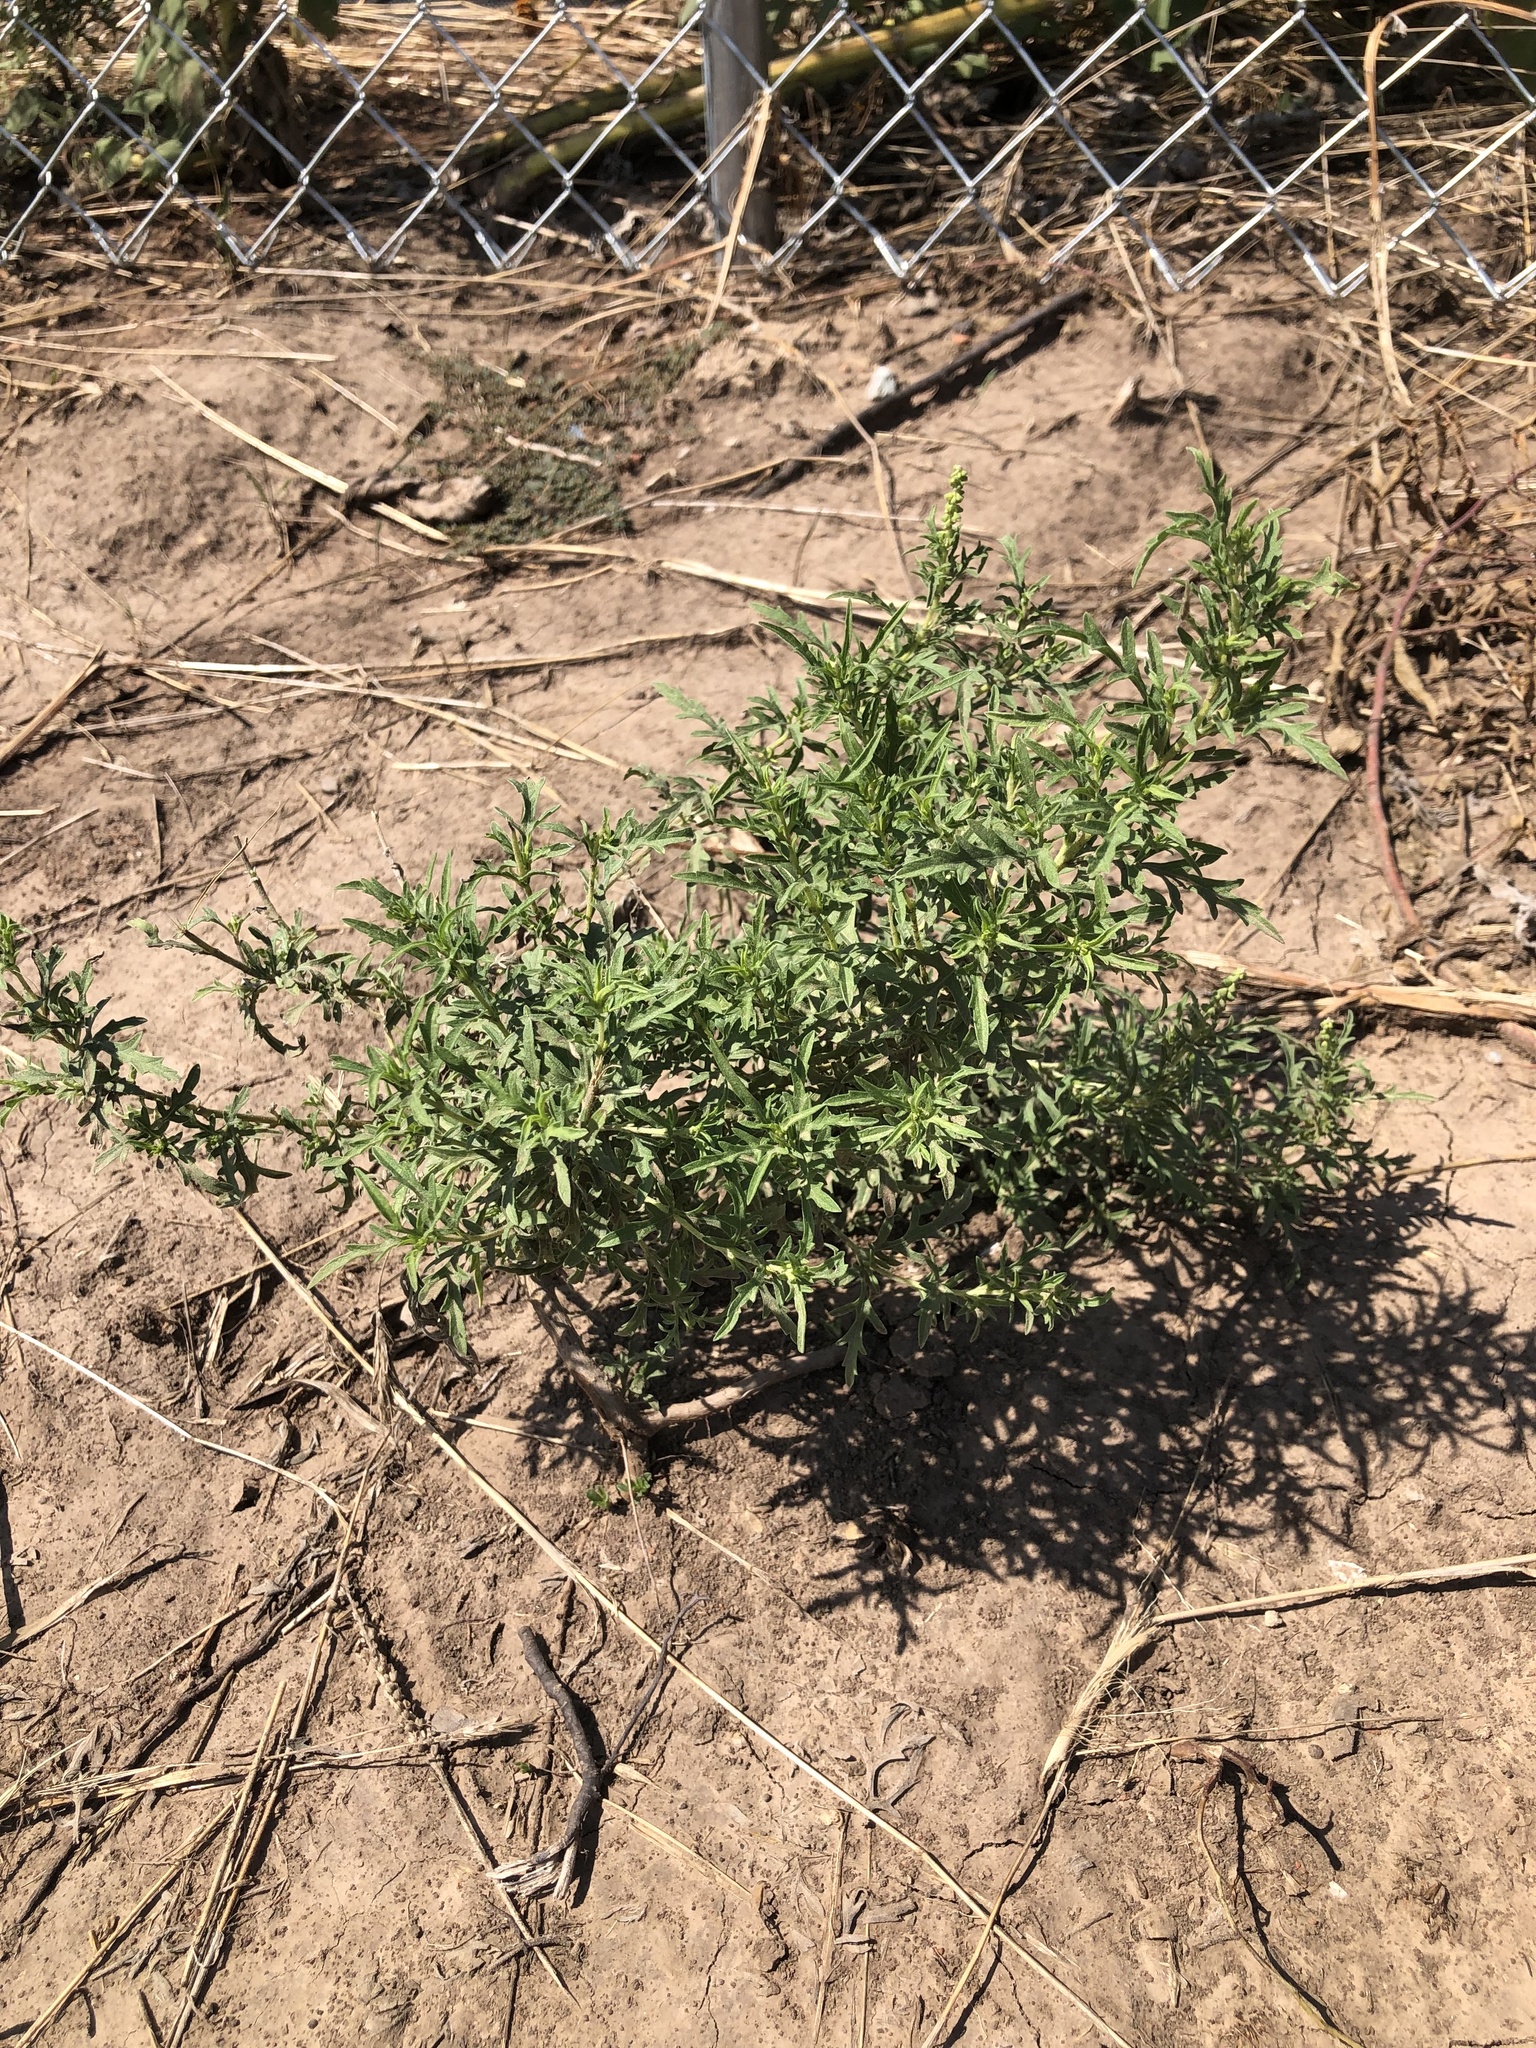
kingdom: Plantae
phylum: Tracheophyta
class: Magnoliopsida
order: Asterales
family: Asteraceae
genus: Ambrosia
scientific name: Ambrosia psilostachya
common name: Perennial ragweed
